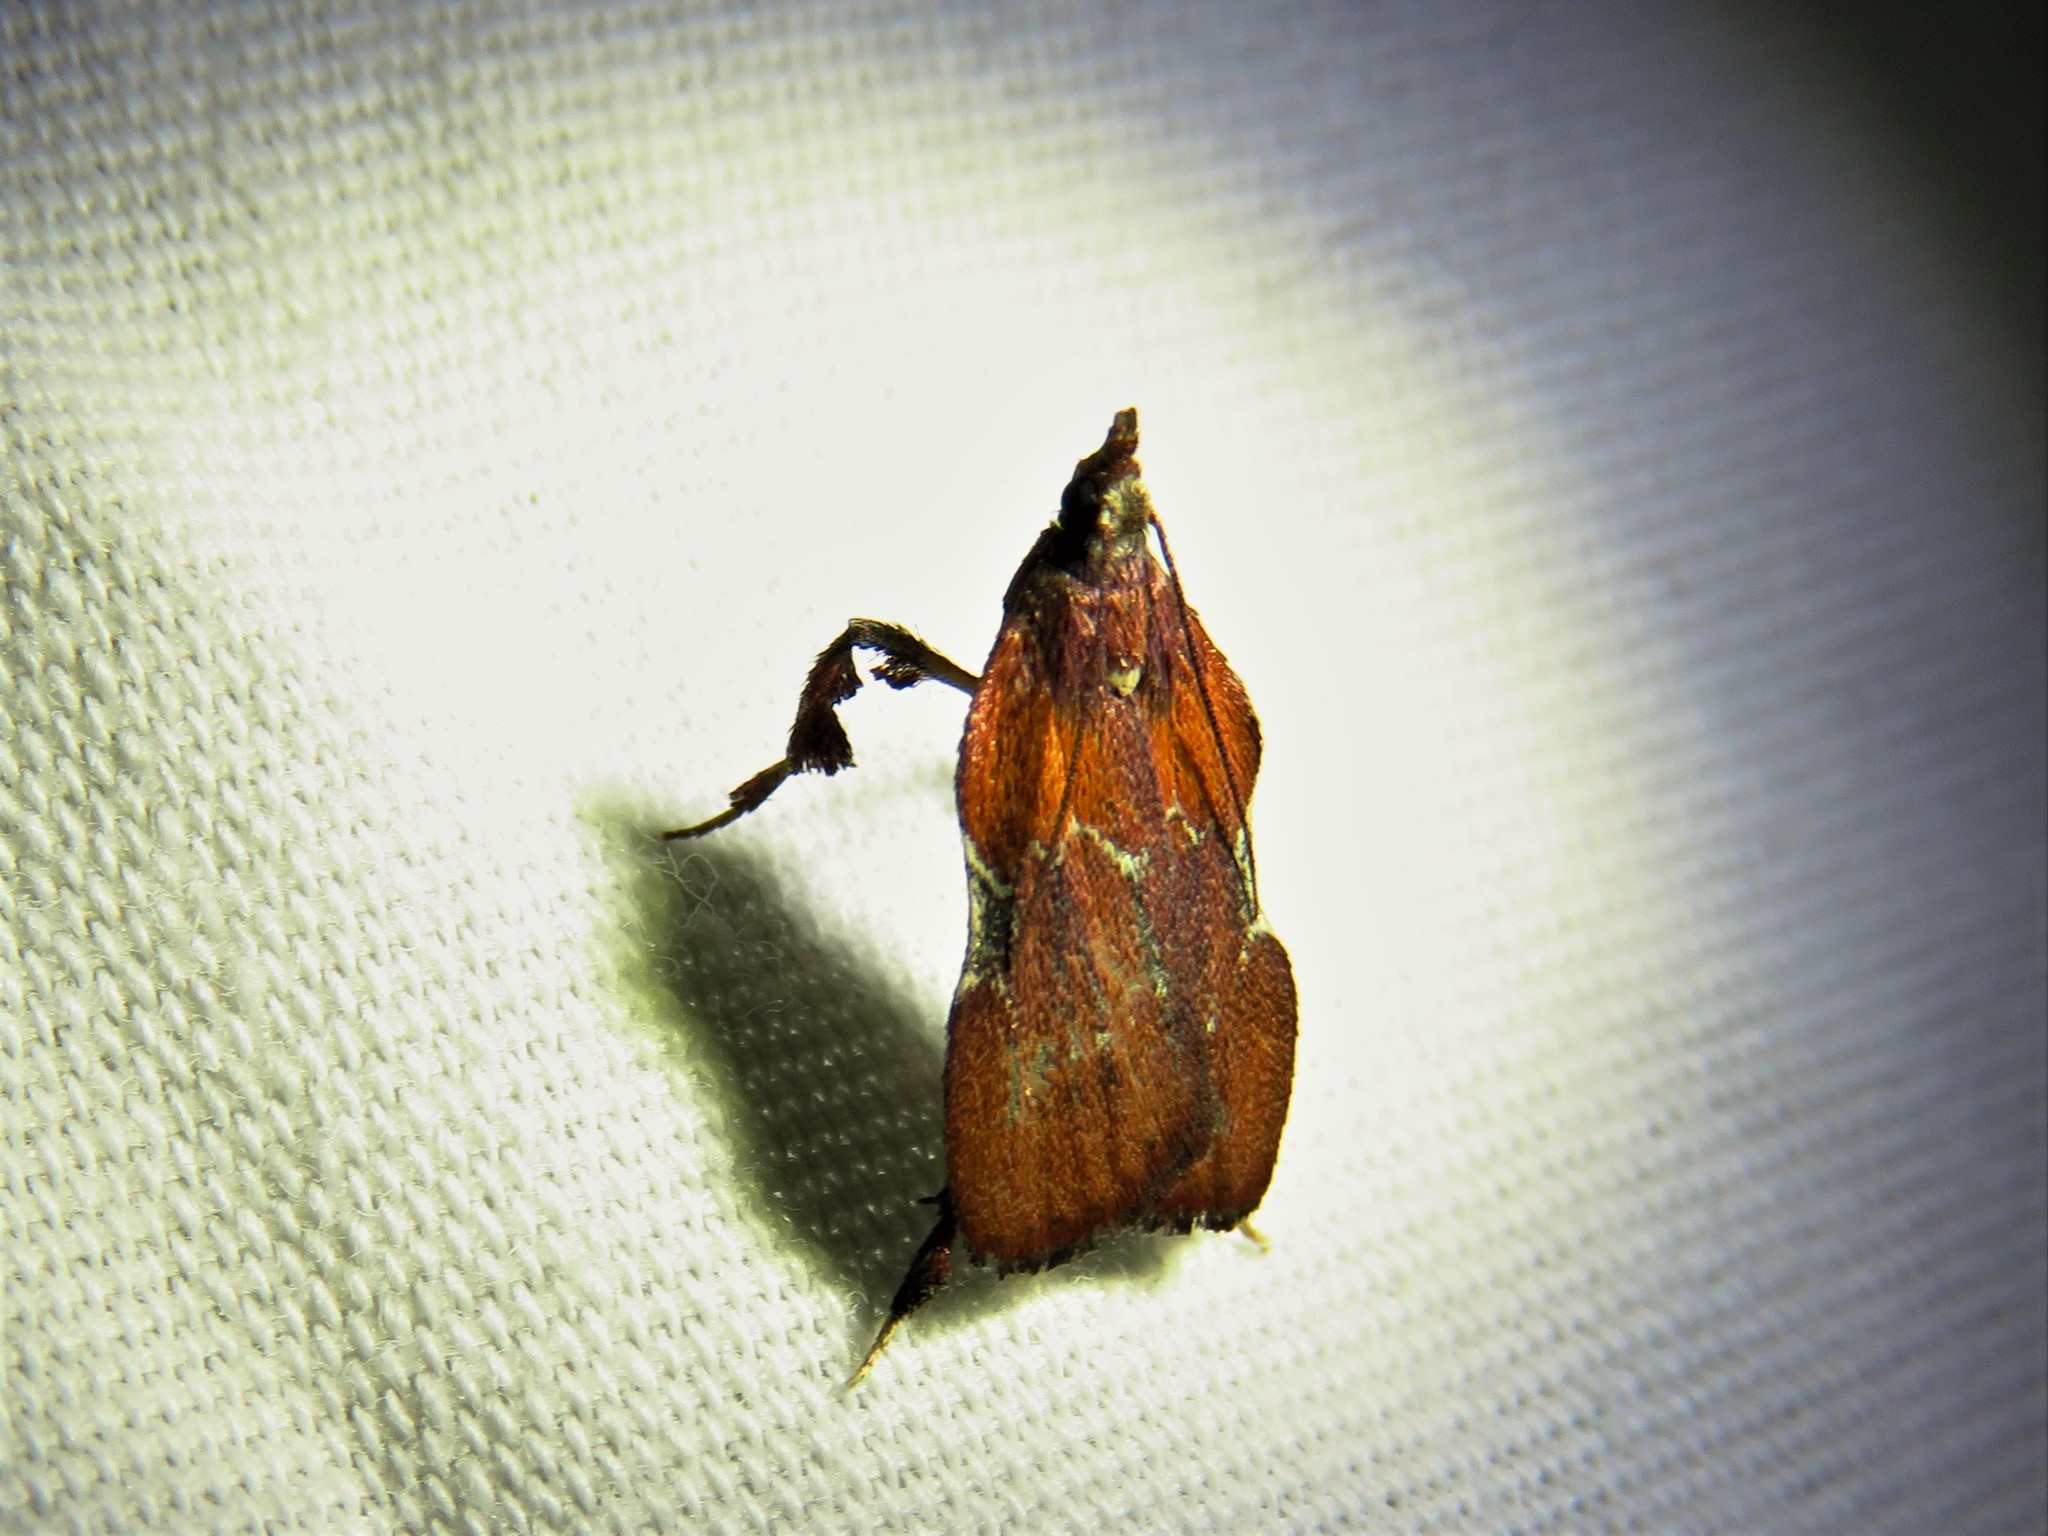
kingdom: Animalia
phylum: Arthropoda
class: Insecta
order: Lepidoptera
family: Pyralidae
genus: Galasa
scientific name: Galasa nigrinodis
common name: Boxwood leaftier moth
